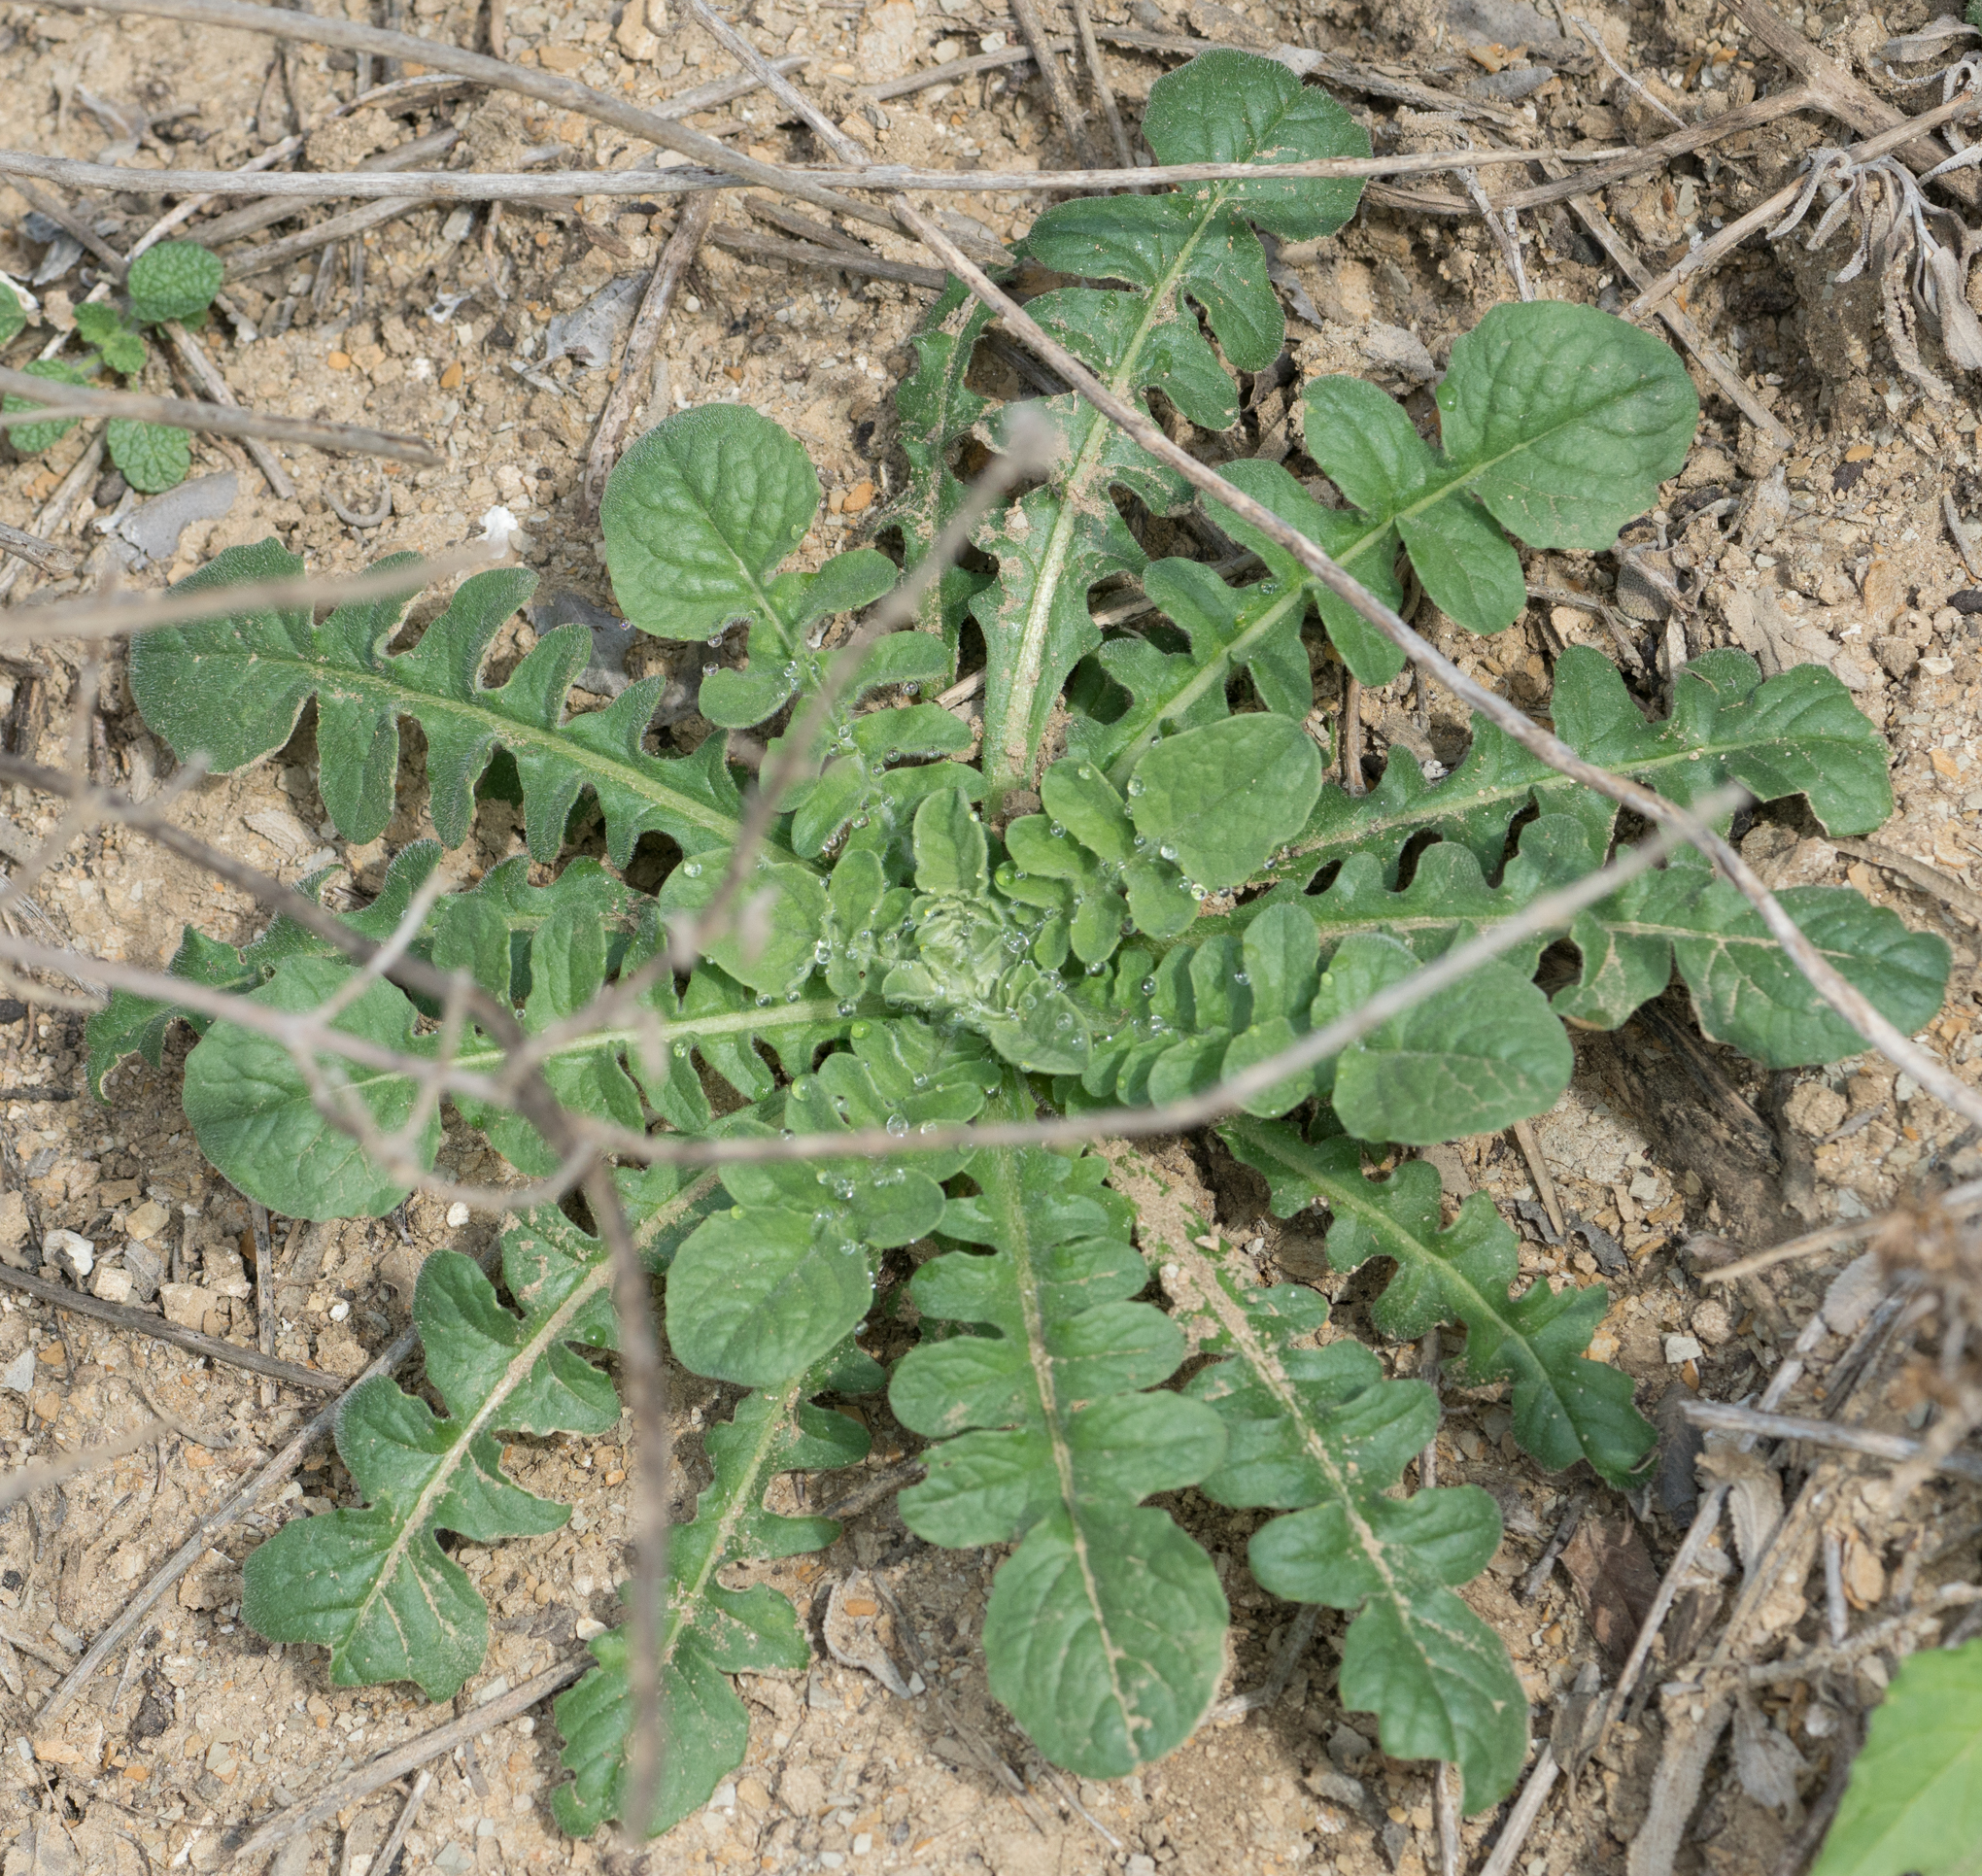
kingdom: Plantae
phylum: Tracheophyta
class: Magnoliopsida
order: Asterales
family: Asteraceae
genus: Centaurea
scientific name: Centaurea melitensis
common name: Maltese star-thistle
